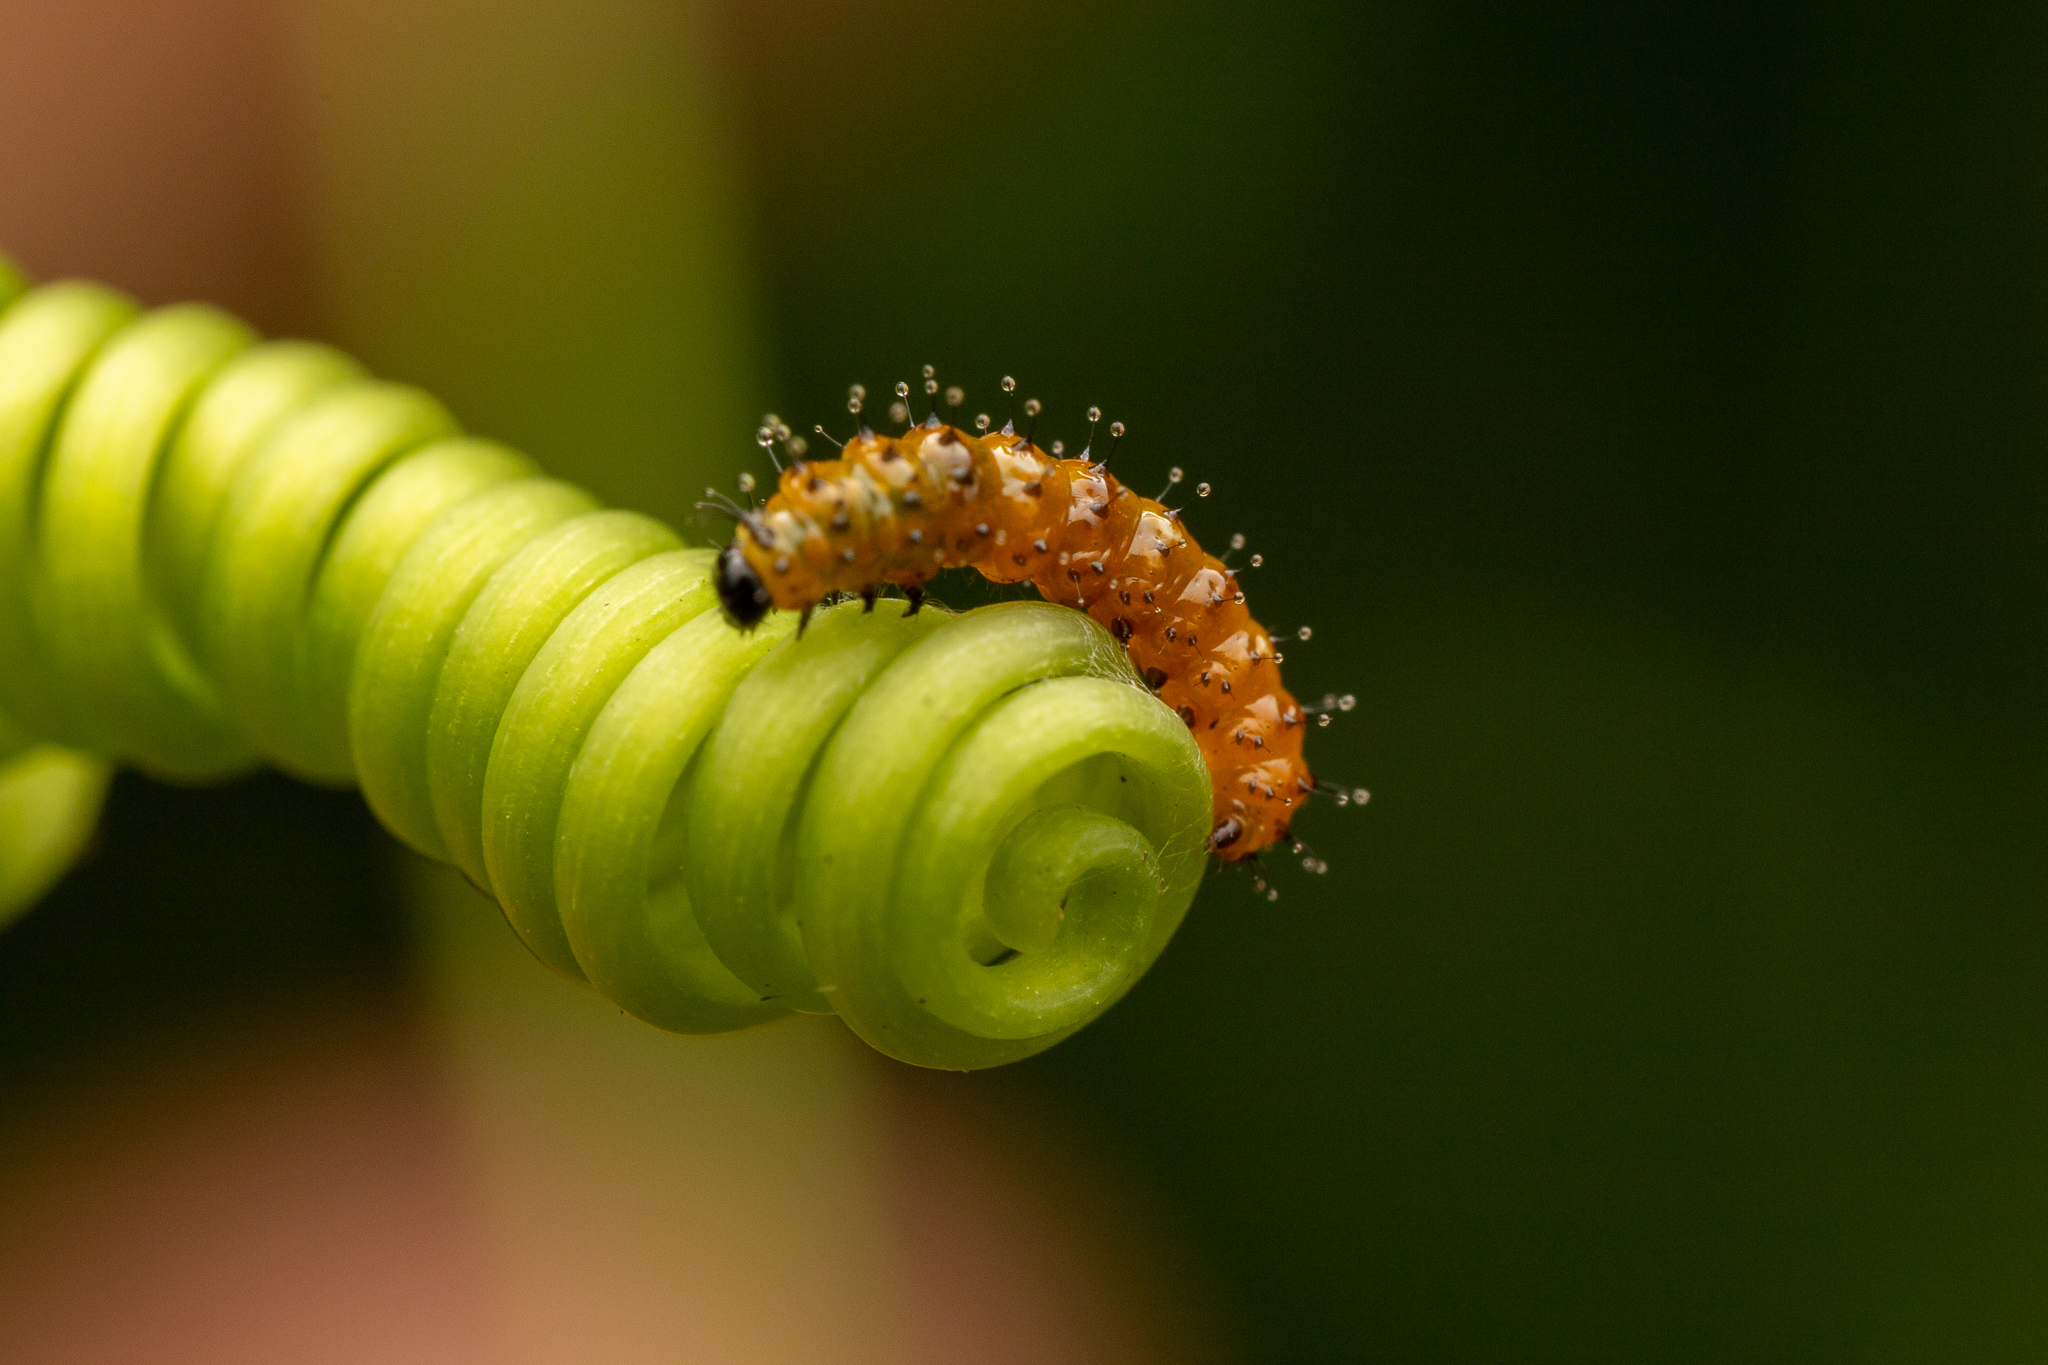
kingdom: Animalia
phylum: Arthropoda
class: Insecta
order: Lepidoptera
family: Nymphalidae
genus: Dione
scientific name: Dione vanillae
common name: Gulf fritillary
